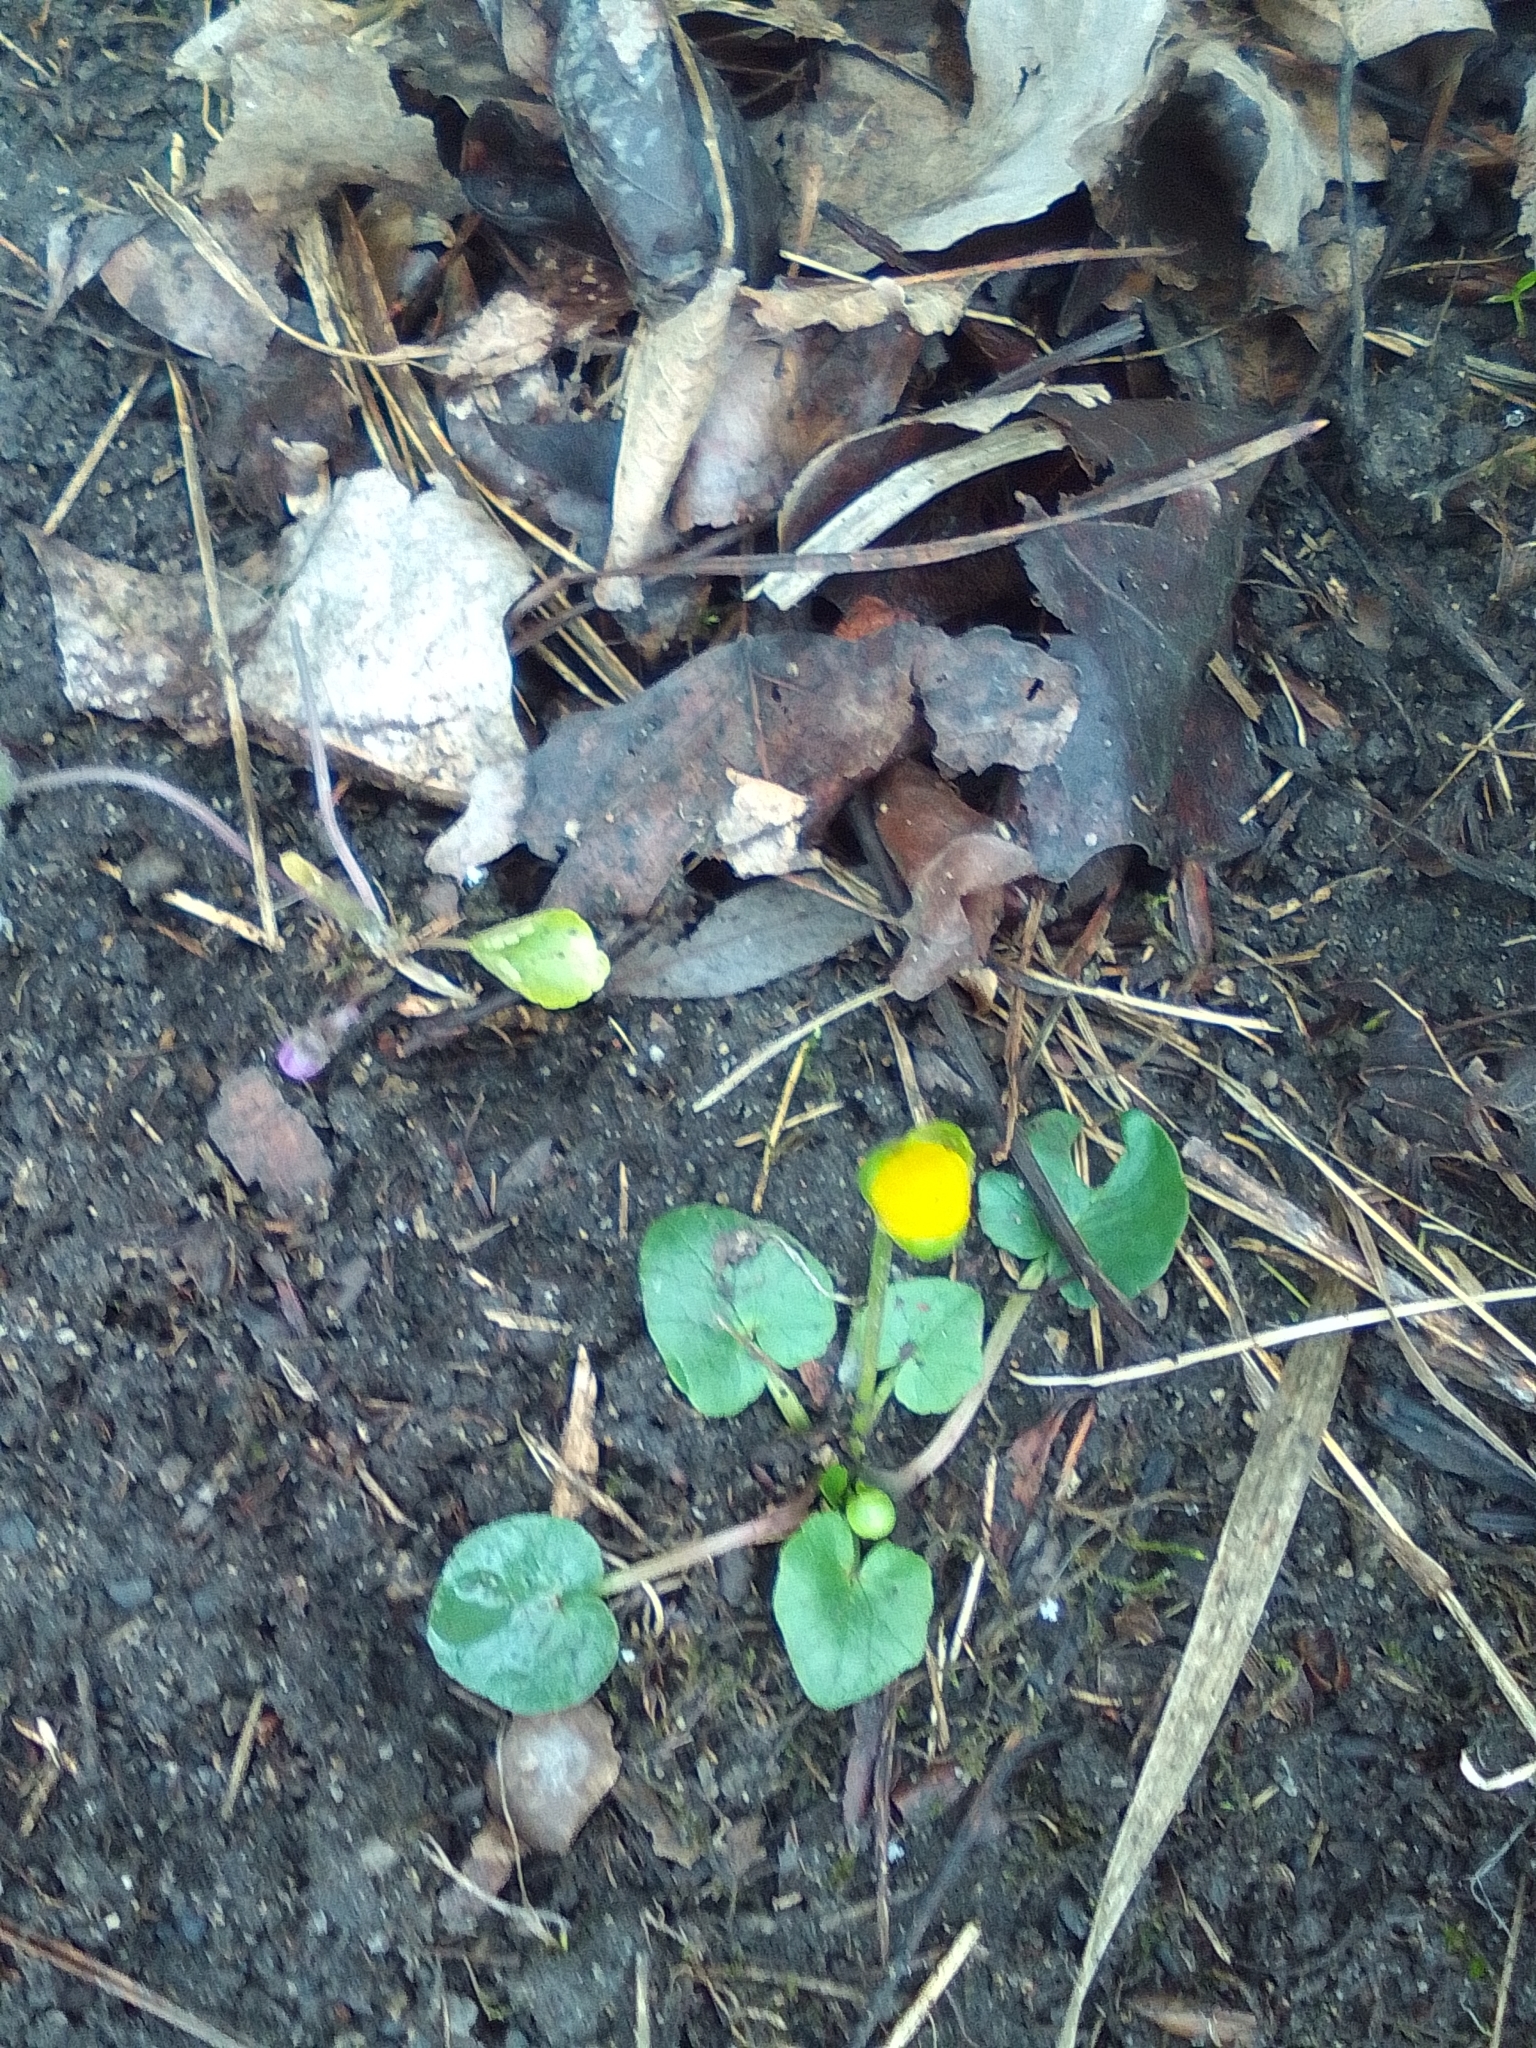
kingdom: Plantae
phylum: Tracheophyta
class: Magnoliopsida
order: Ranunculales
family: Ranunculaceae
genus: Ficaria
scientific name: Ficaria verna
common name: Lesser celandine
